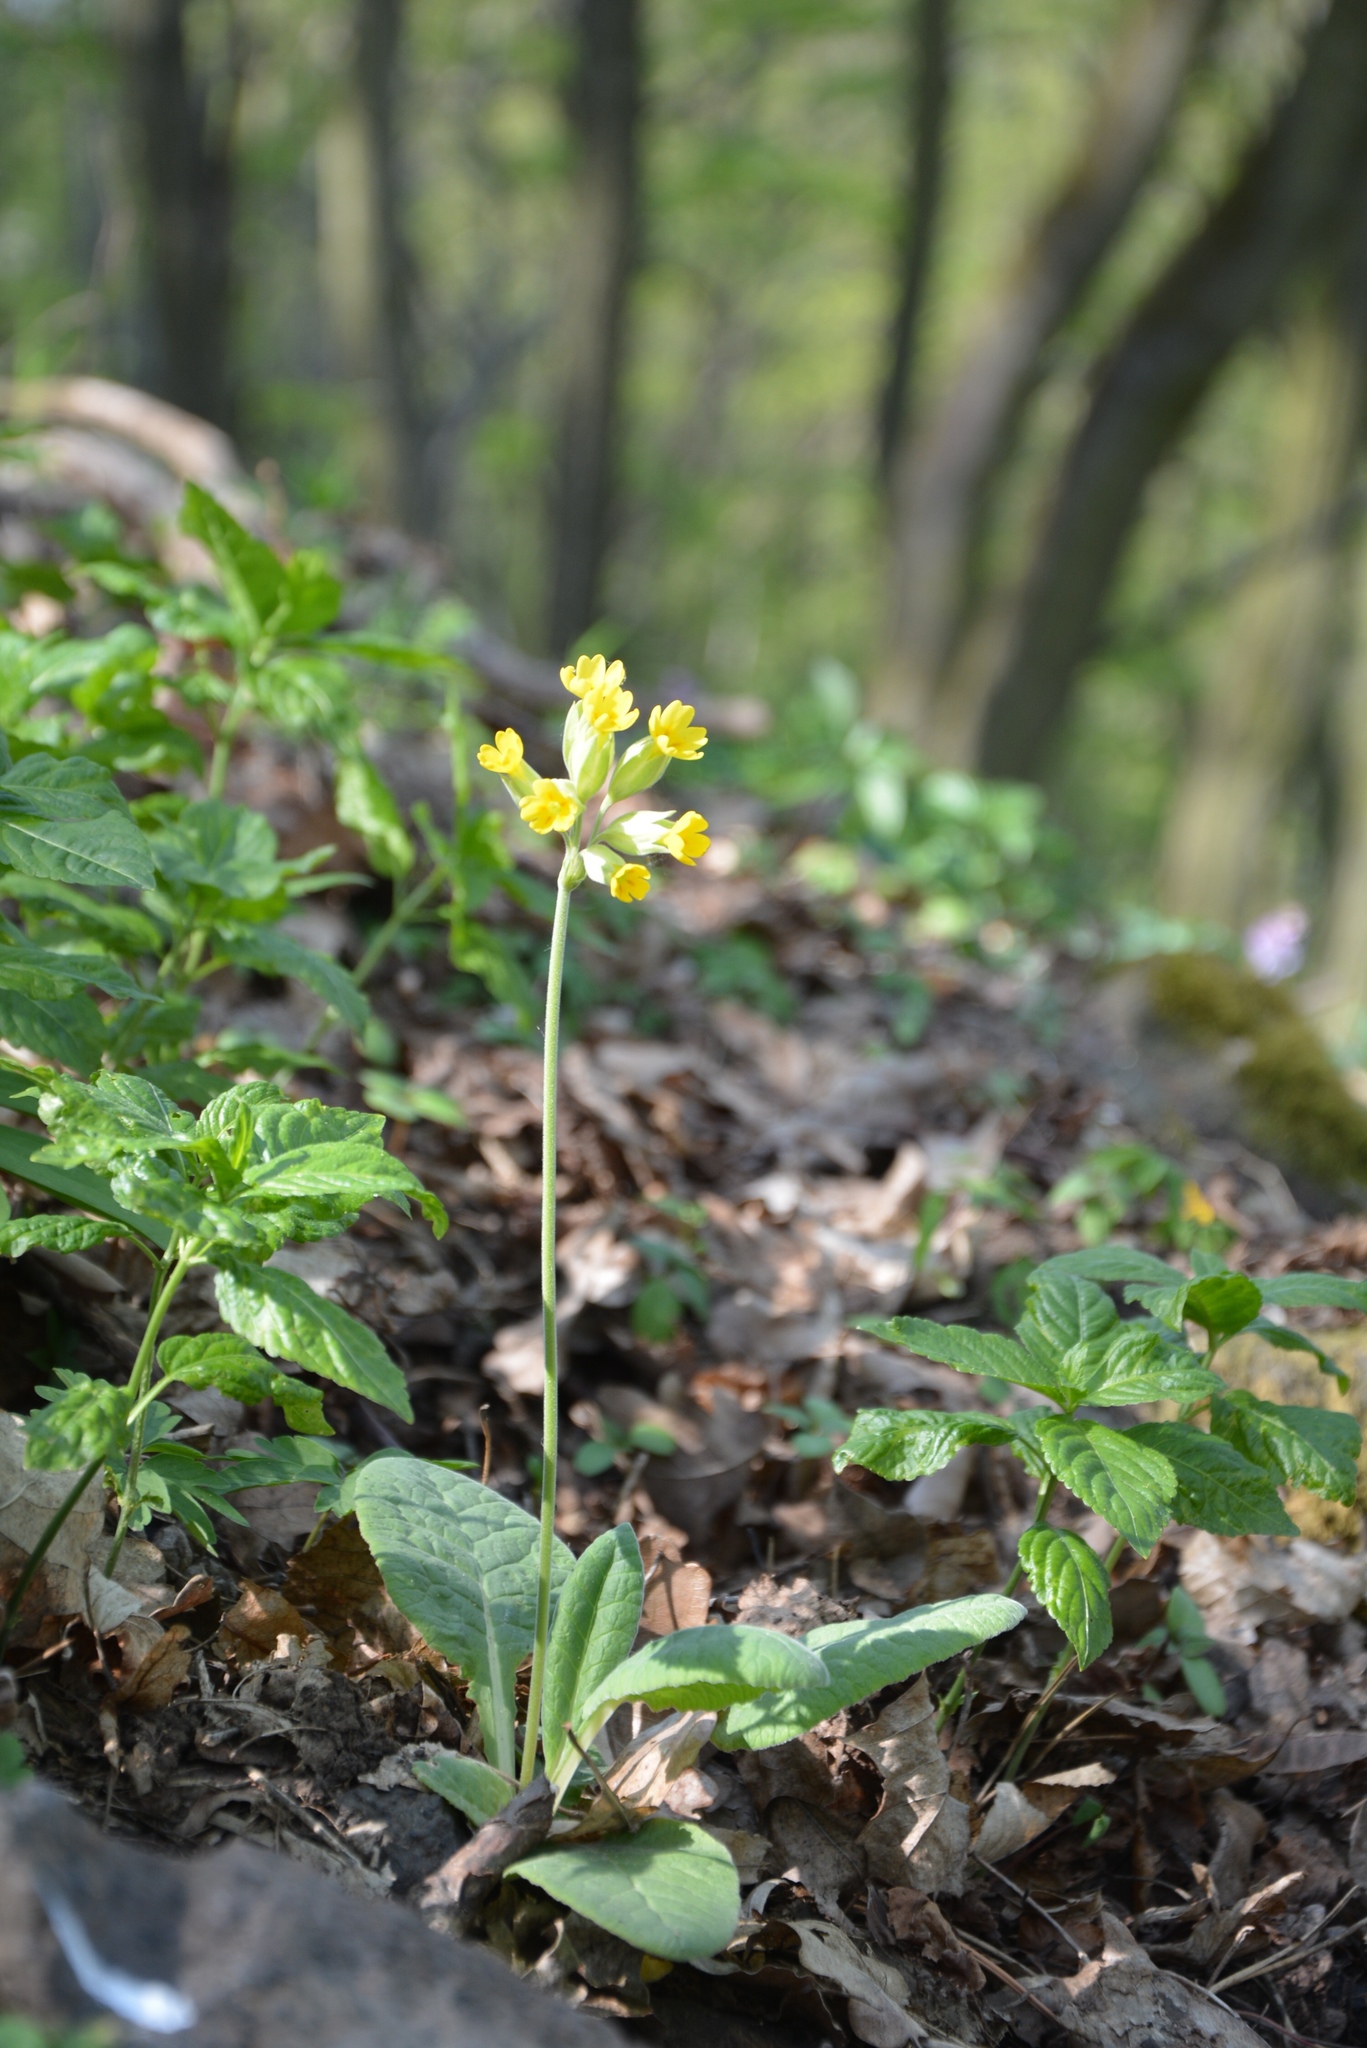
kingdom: Plantae
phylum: Tracheophyta
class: Magnoliopsida
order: Ericales
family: Primulaceae
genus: Primula
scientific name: Primula veris
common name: Cowslip
